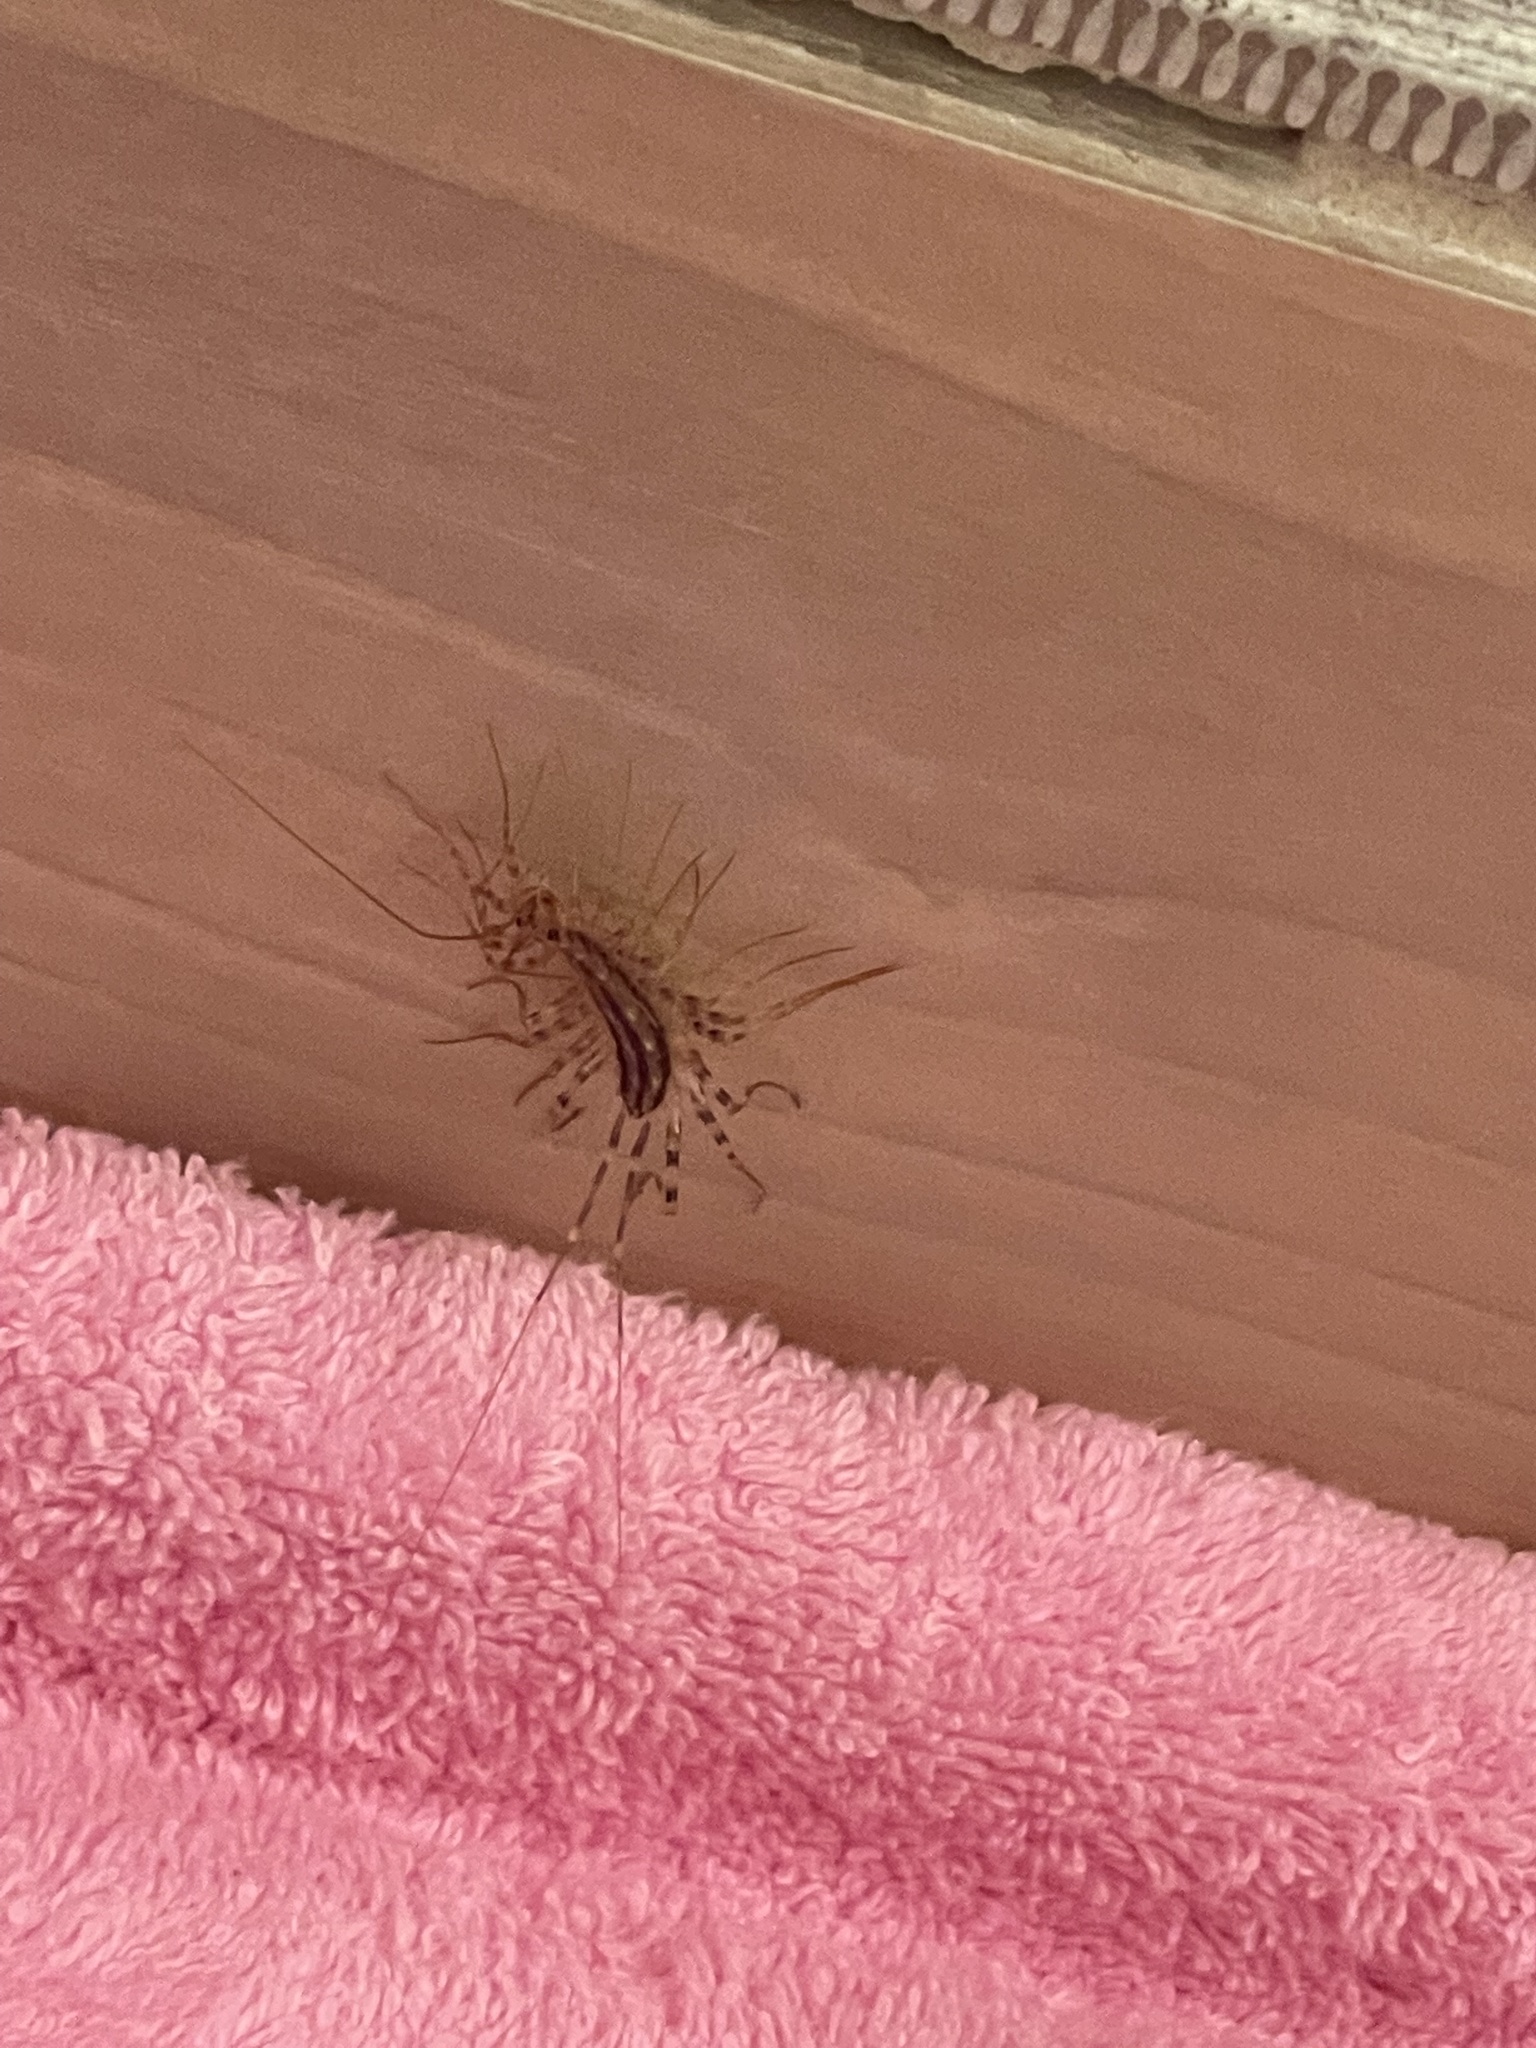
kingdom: Animalia
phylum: Arthropoda
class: Chilopoda
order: Scutigeromorpha
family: Scutigeridae
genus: Scutigera
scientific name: Scutigera coleoptrata
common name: House centipede
